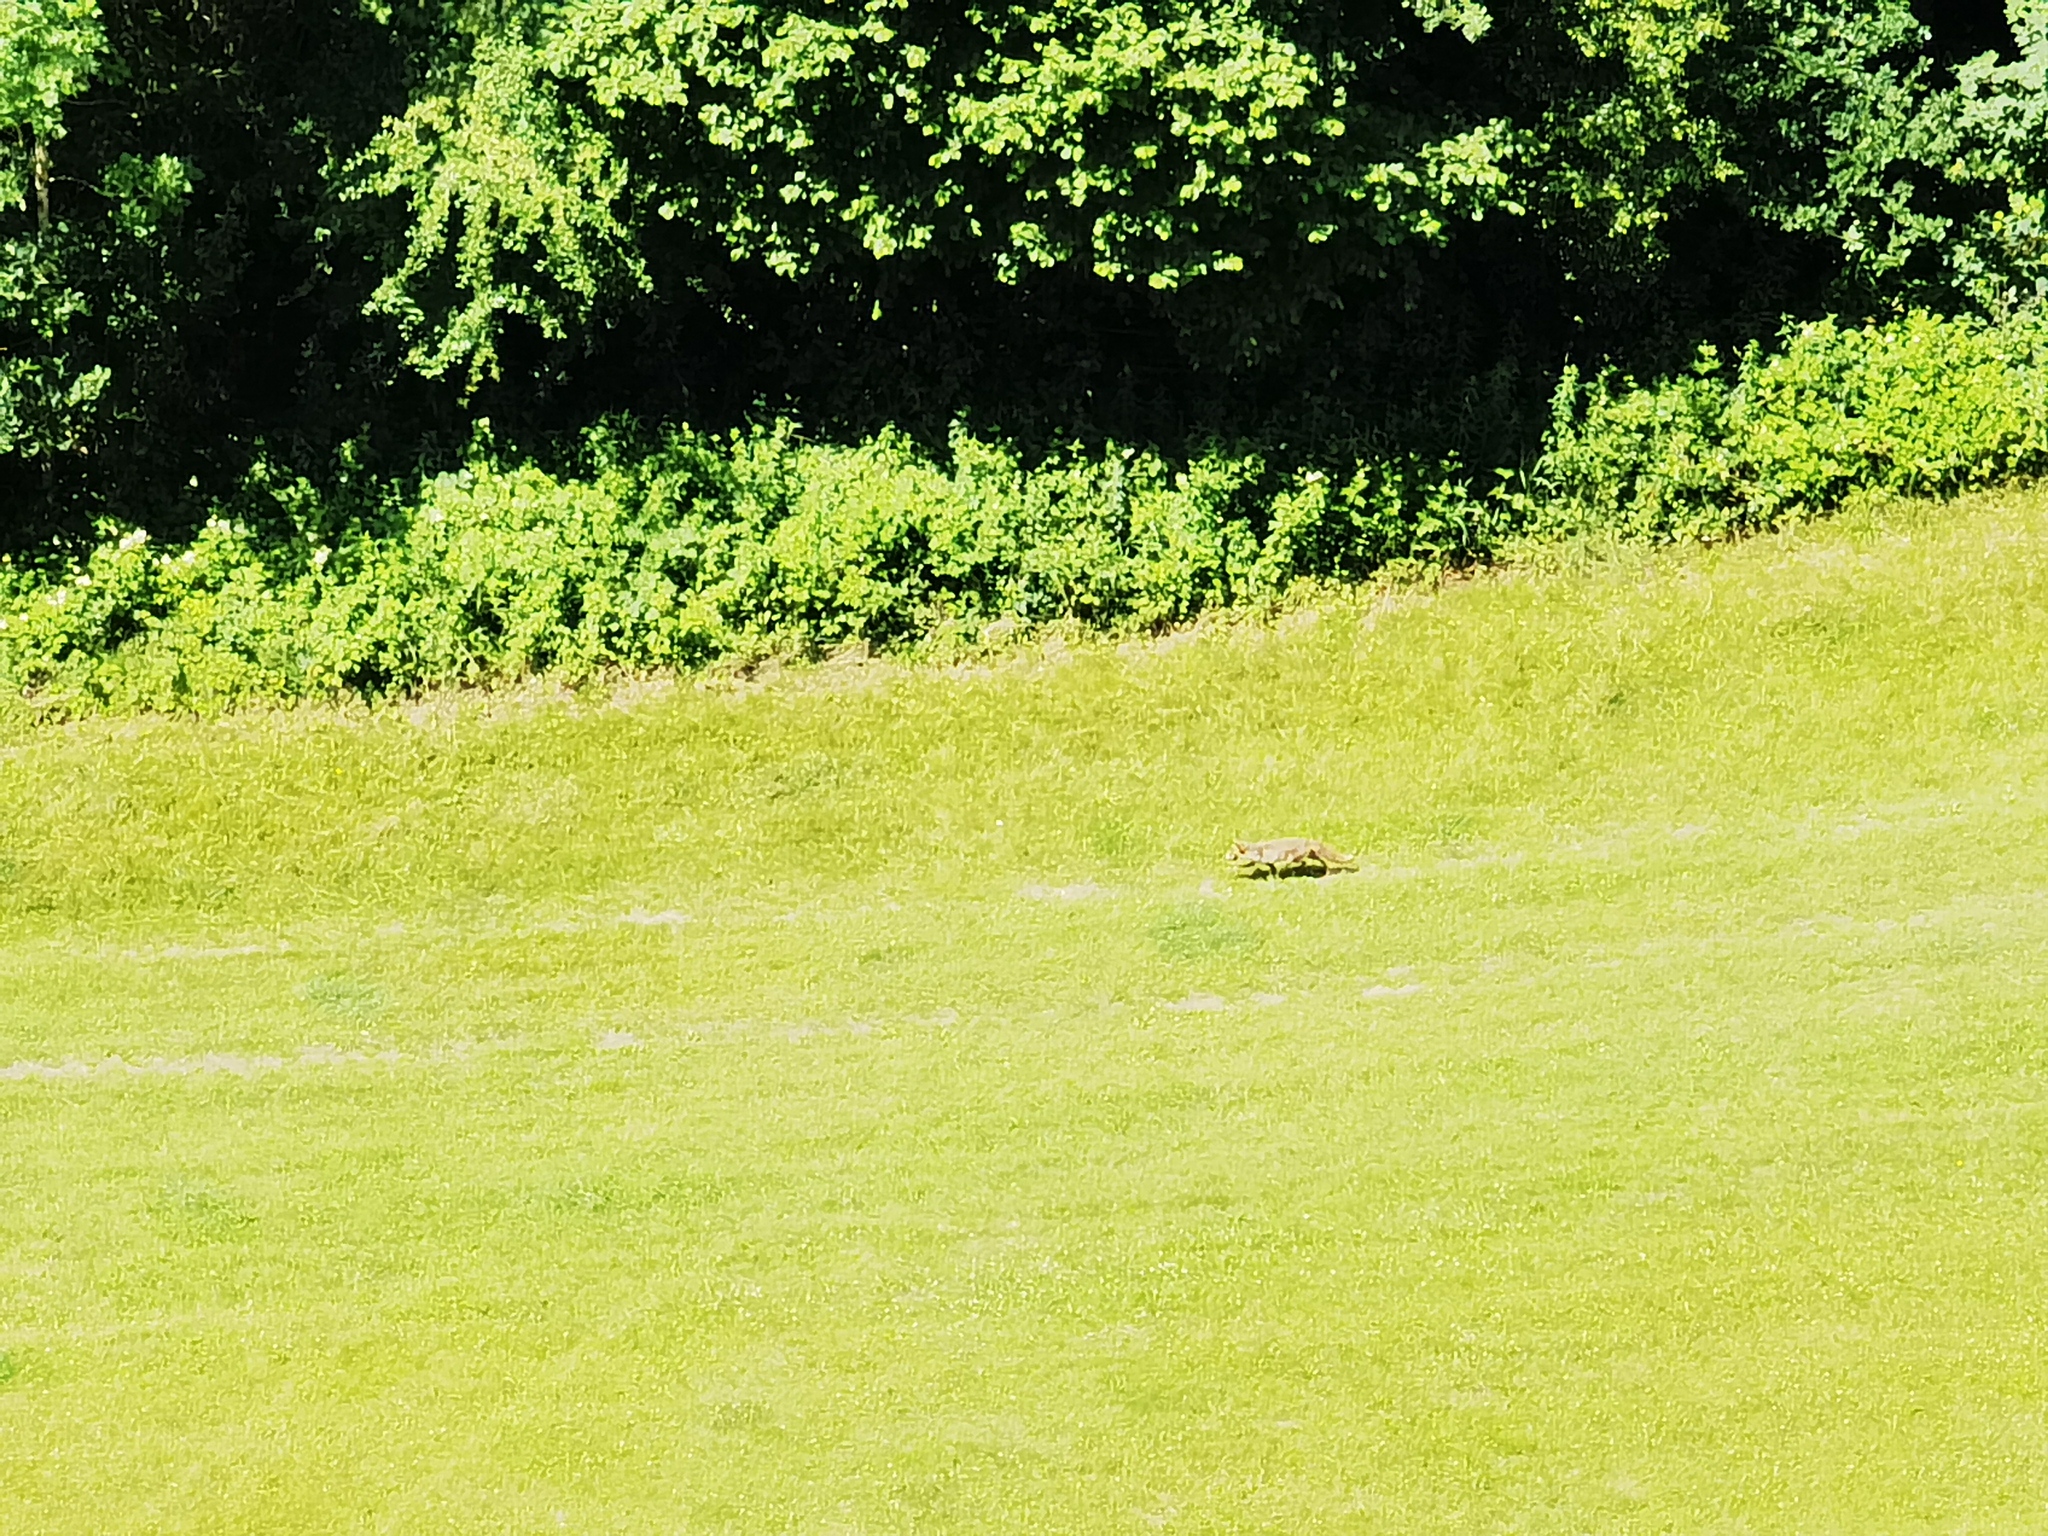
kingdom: Animalia
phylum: Chordata
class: Mammalia
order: Carnivora
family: Canidae
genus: Vulpes
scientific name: Vulpes vulpes
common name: Red fox
